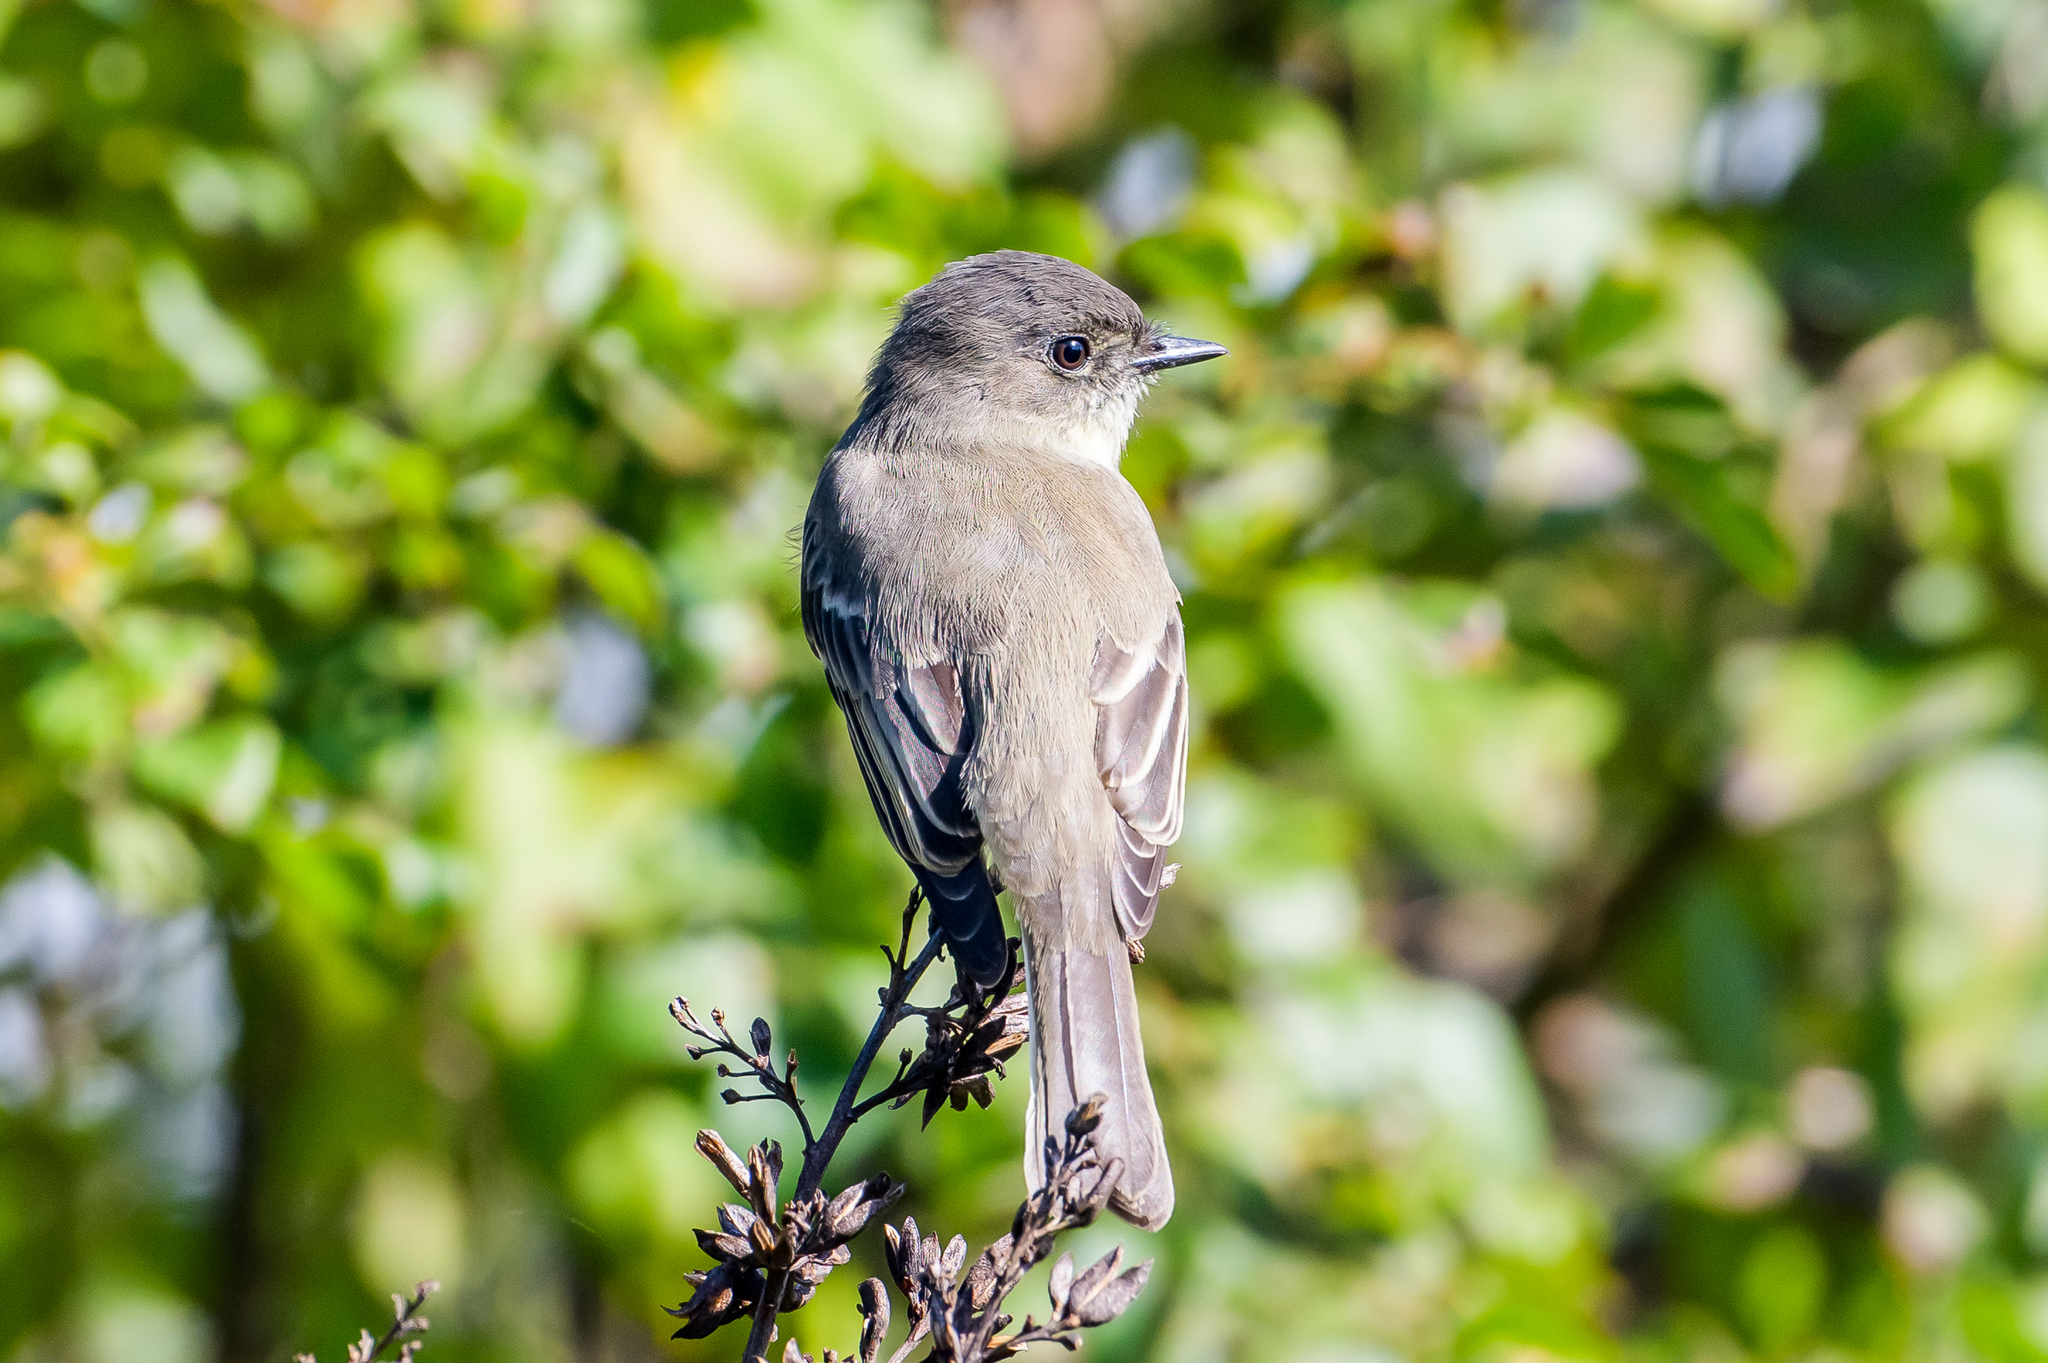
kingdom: Animalia
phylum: Chordata
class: Aves
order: Passeriformes
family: Tyrannidae
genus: Sayornis
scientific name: Sayornis phoebe
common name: Eastern phoebe
